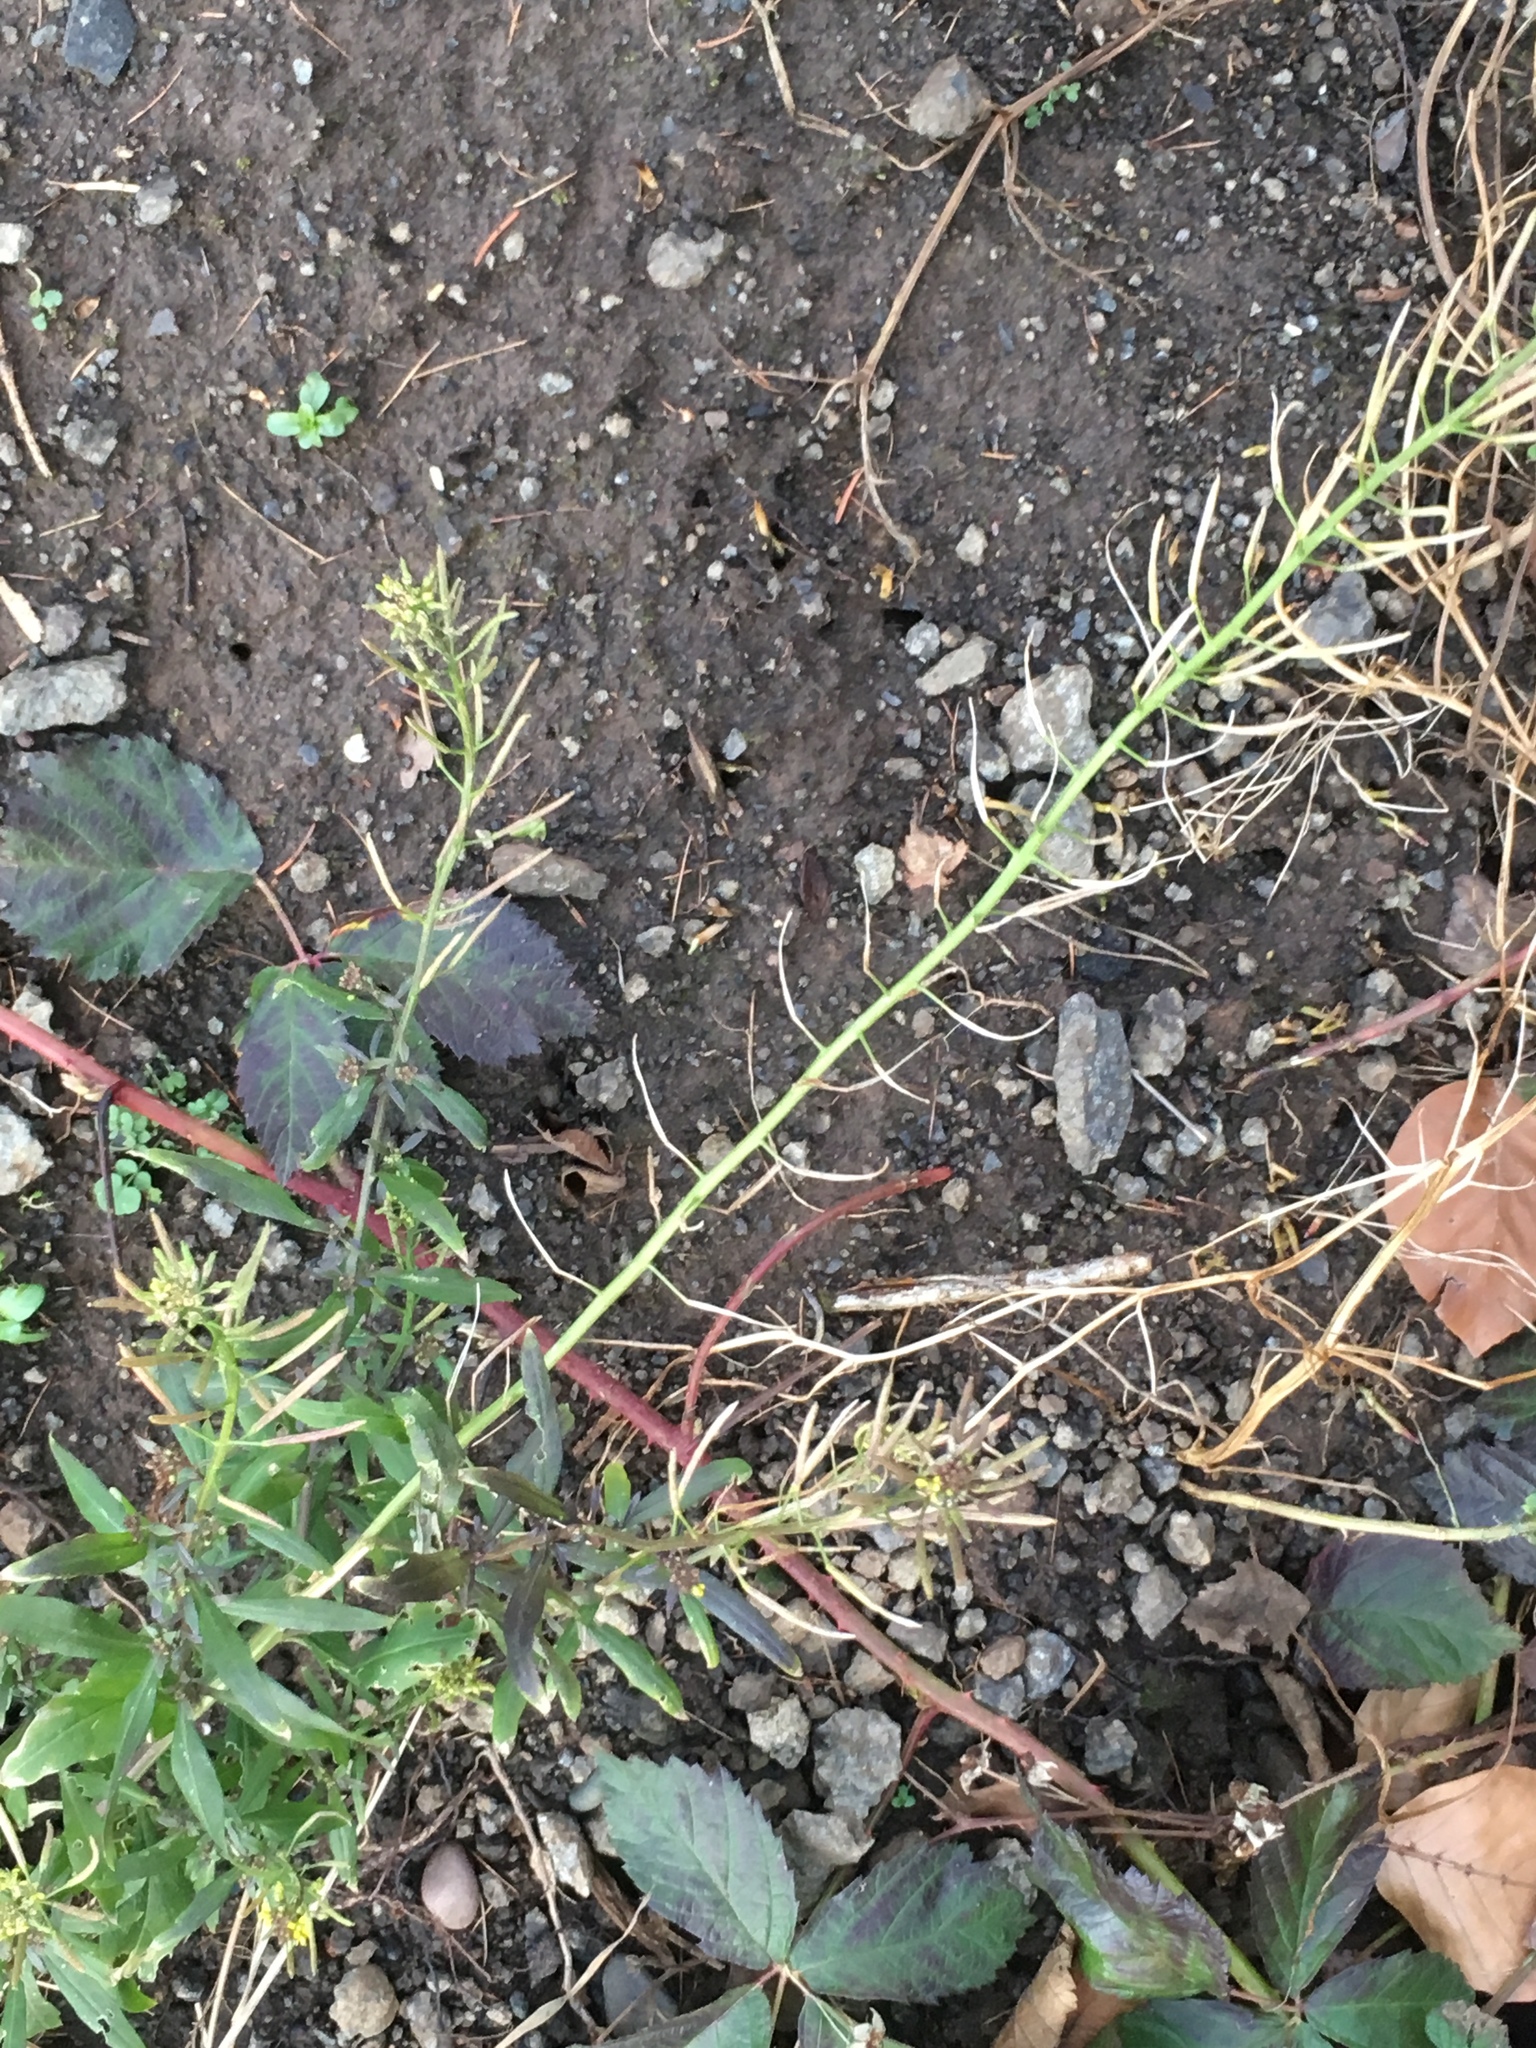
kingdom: Plantae
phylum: Tracheophyta
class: Magnoliopsida
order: Brassicales
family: Brassicaceae
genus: Erysimum
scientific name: Erysimum cheiranthoides
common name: Treacle mustard
